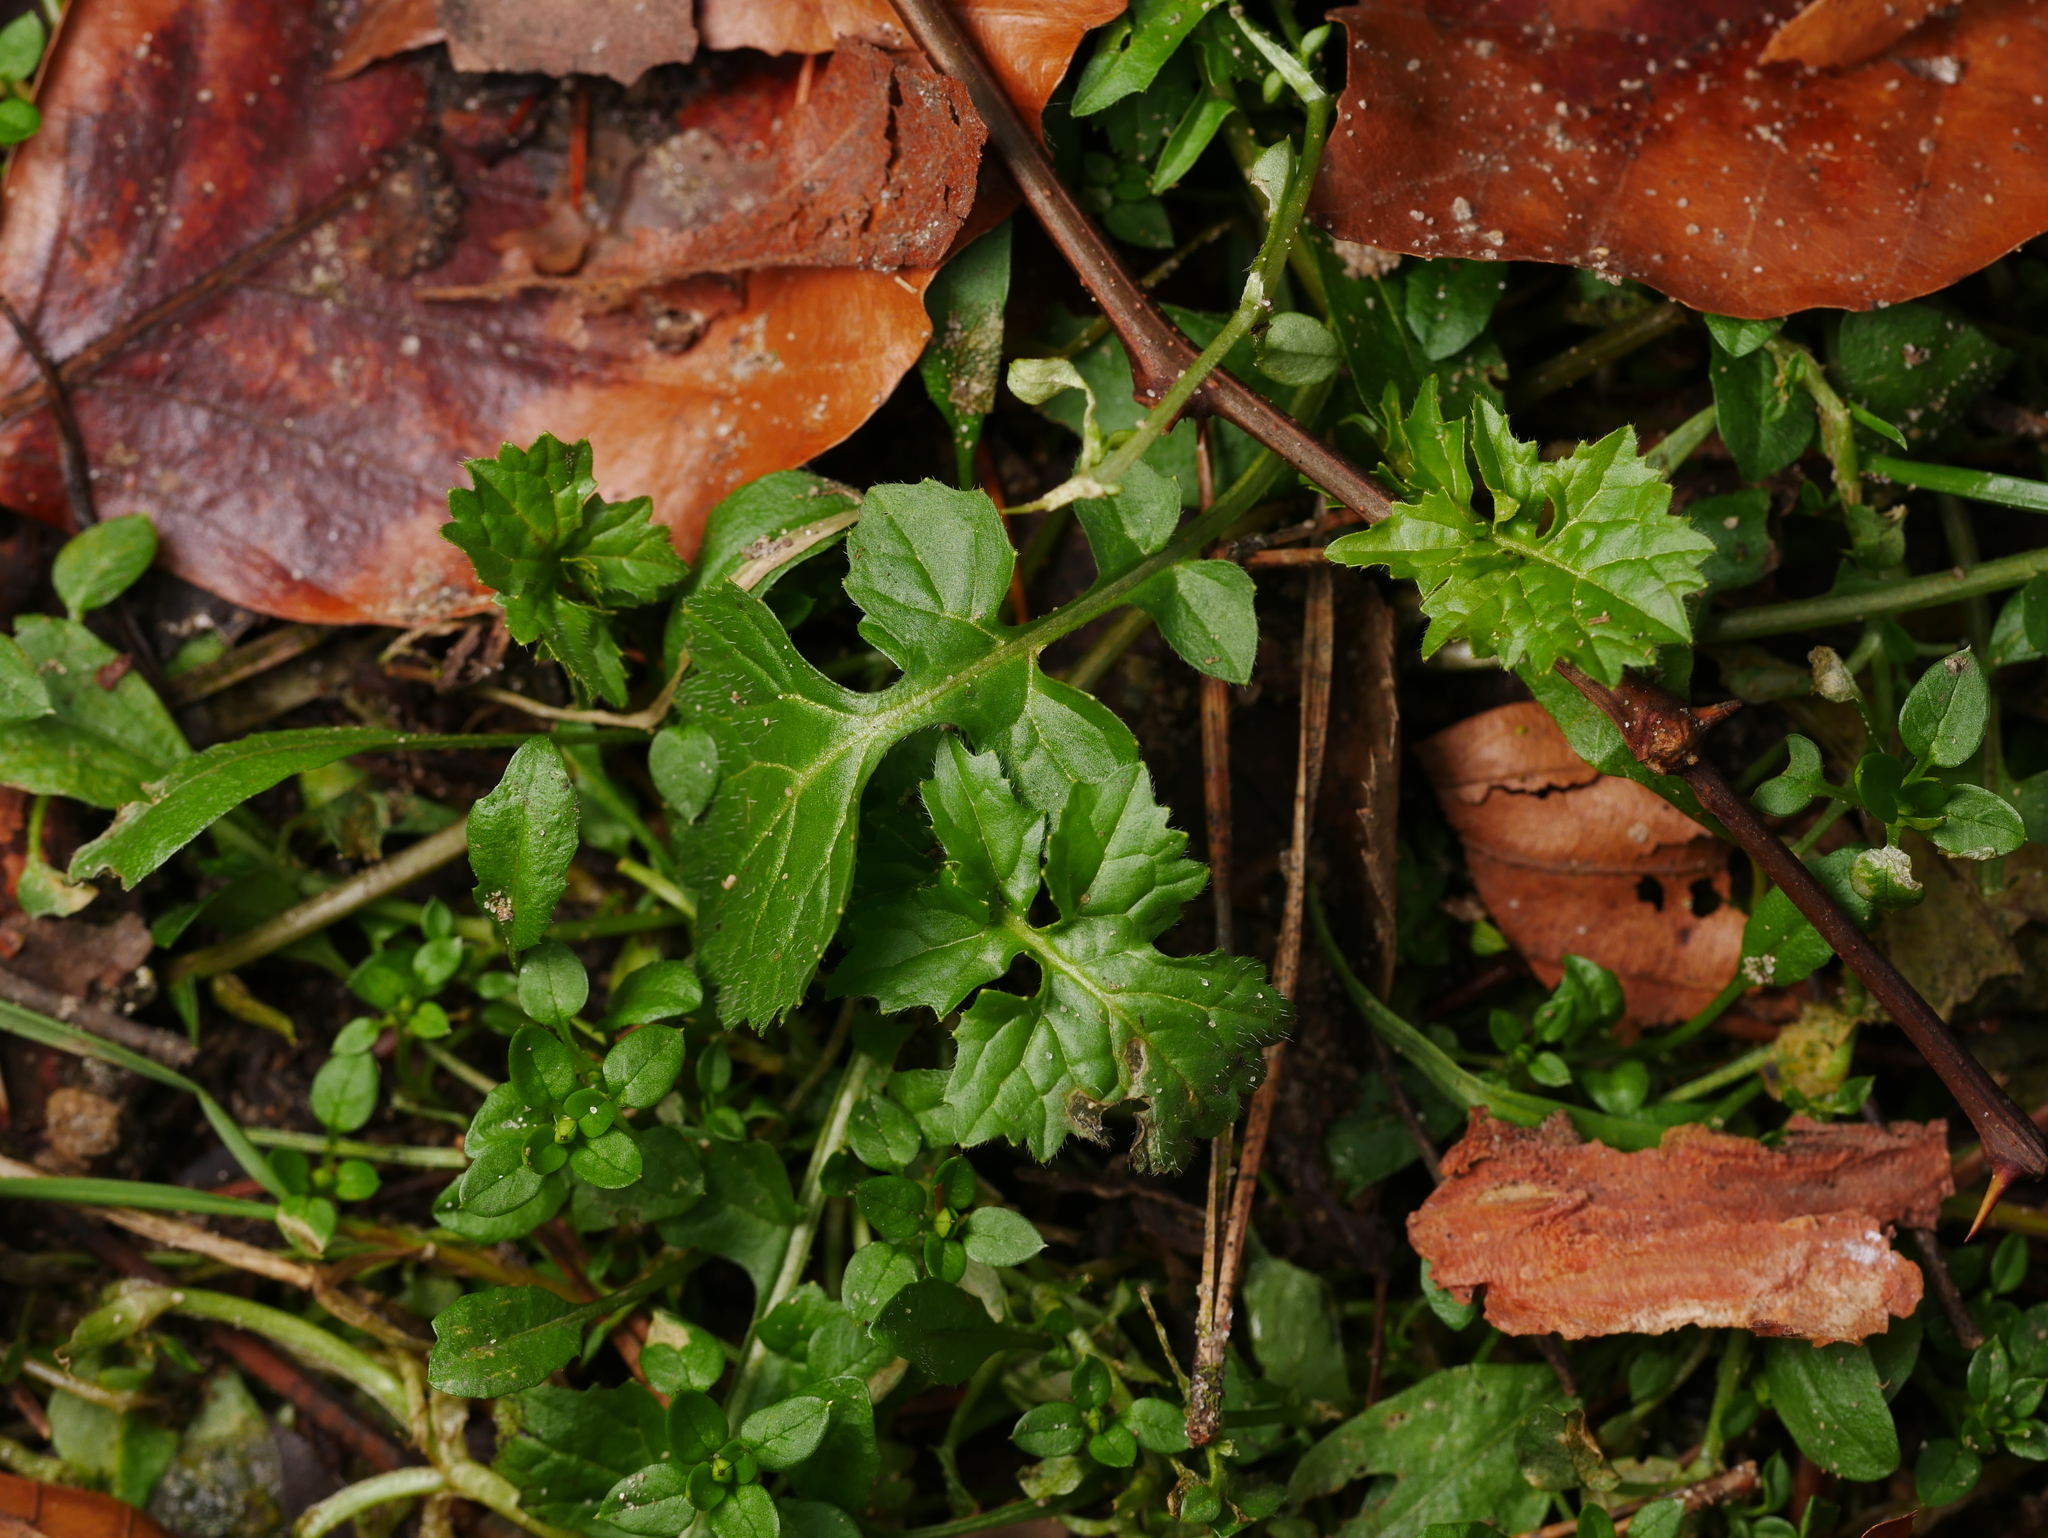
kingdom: Plantae
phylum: Tracheophyta
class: Magnoliopsida
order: Asterales
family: Asteraceae
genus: Mycelis
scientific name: Mycelis muralis
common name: Wall lettuce
